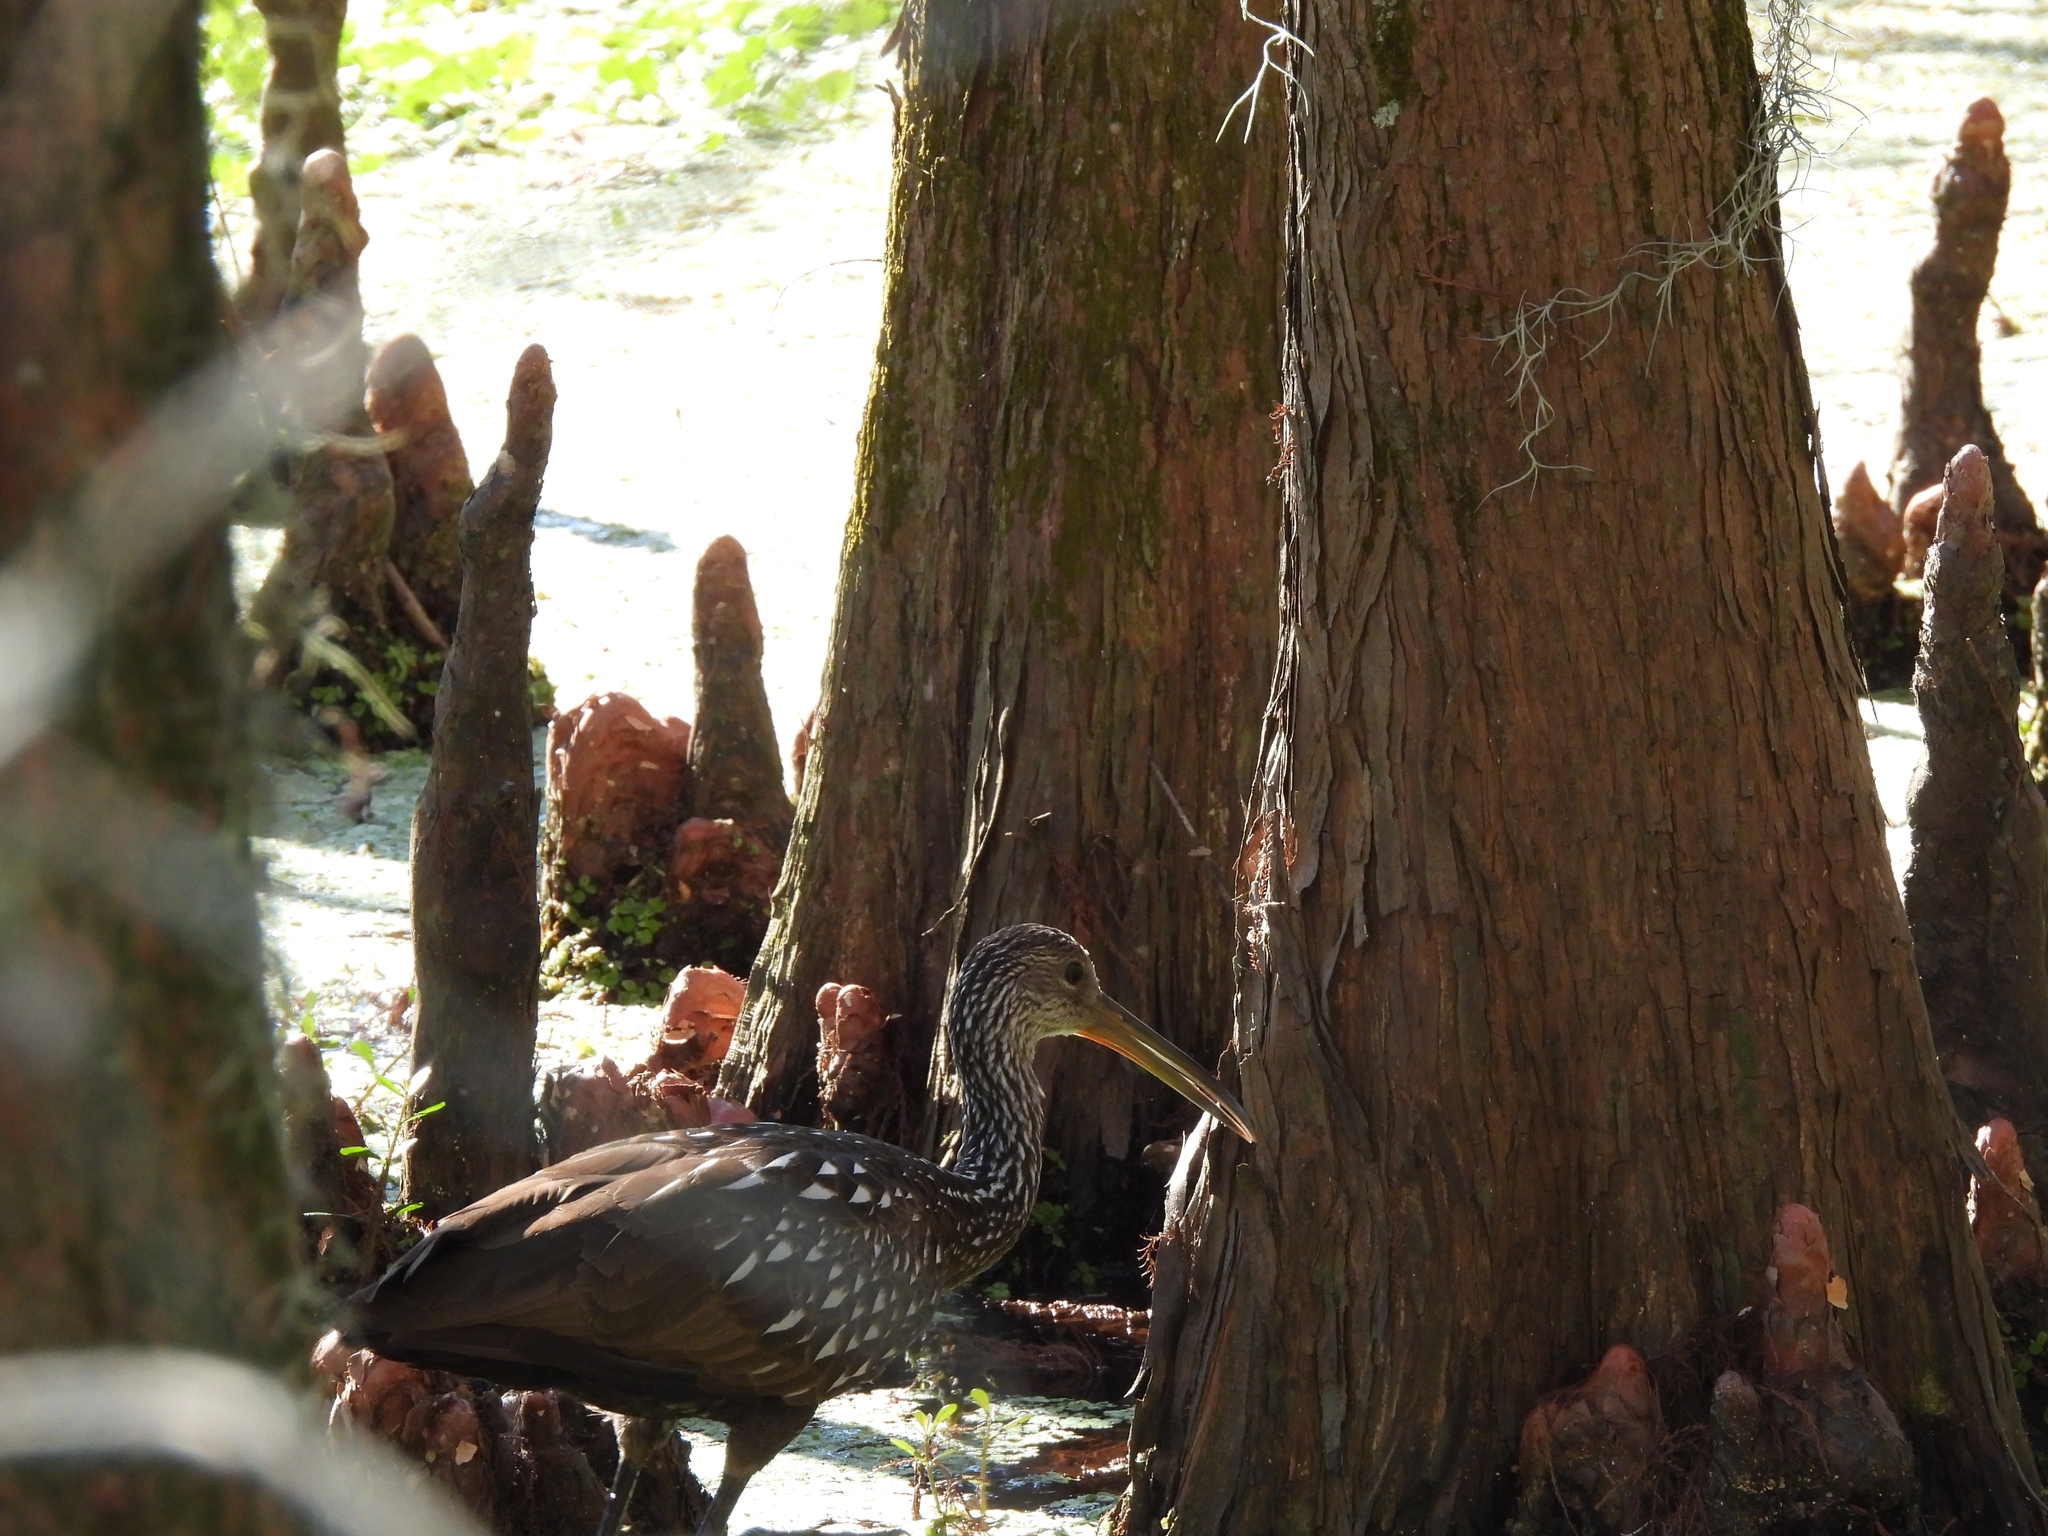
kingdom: Animalia
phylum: Chordata
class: Aves
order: Gruiformes
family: Aramidae
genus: Aramus
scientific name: Aramus guarauna
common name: Limpkin
